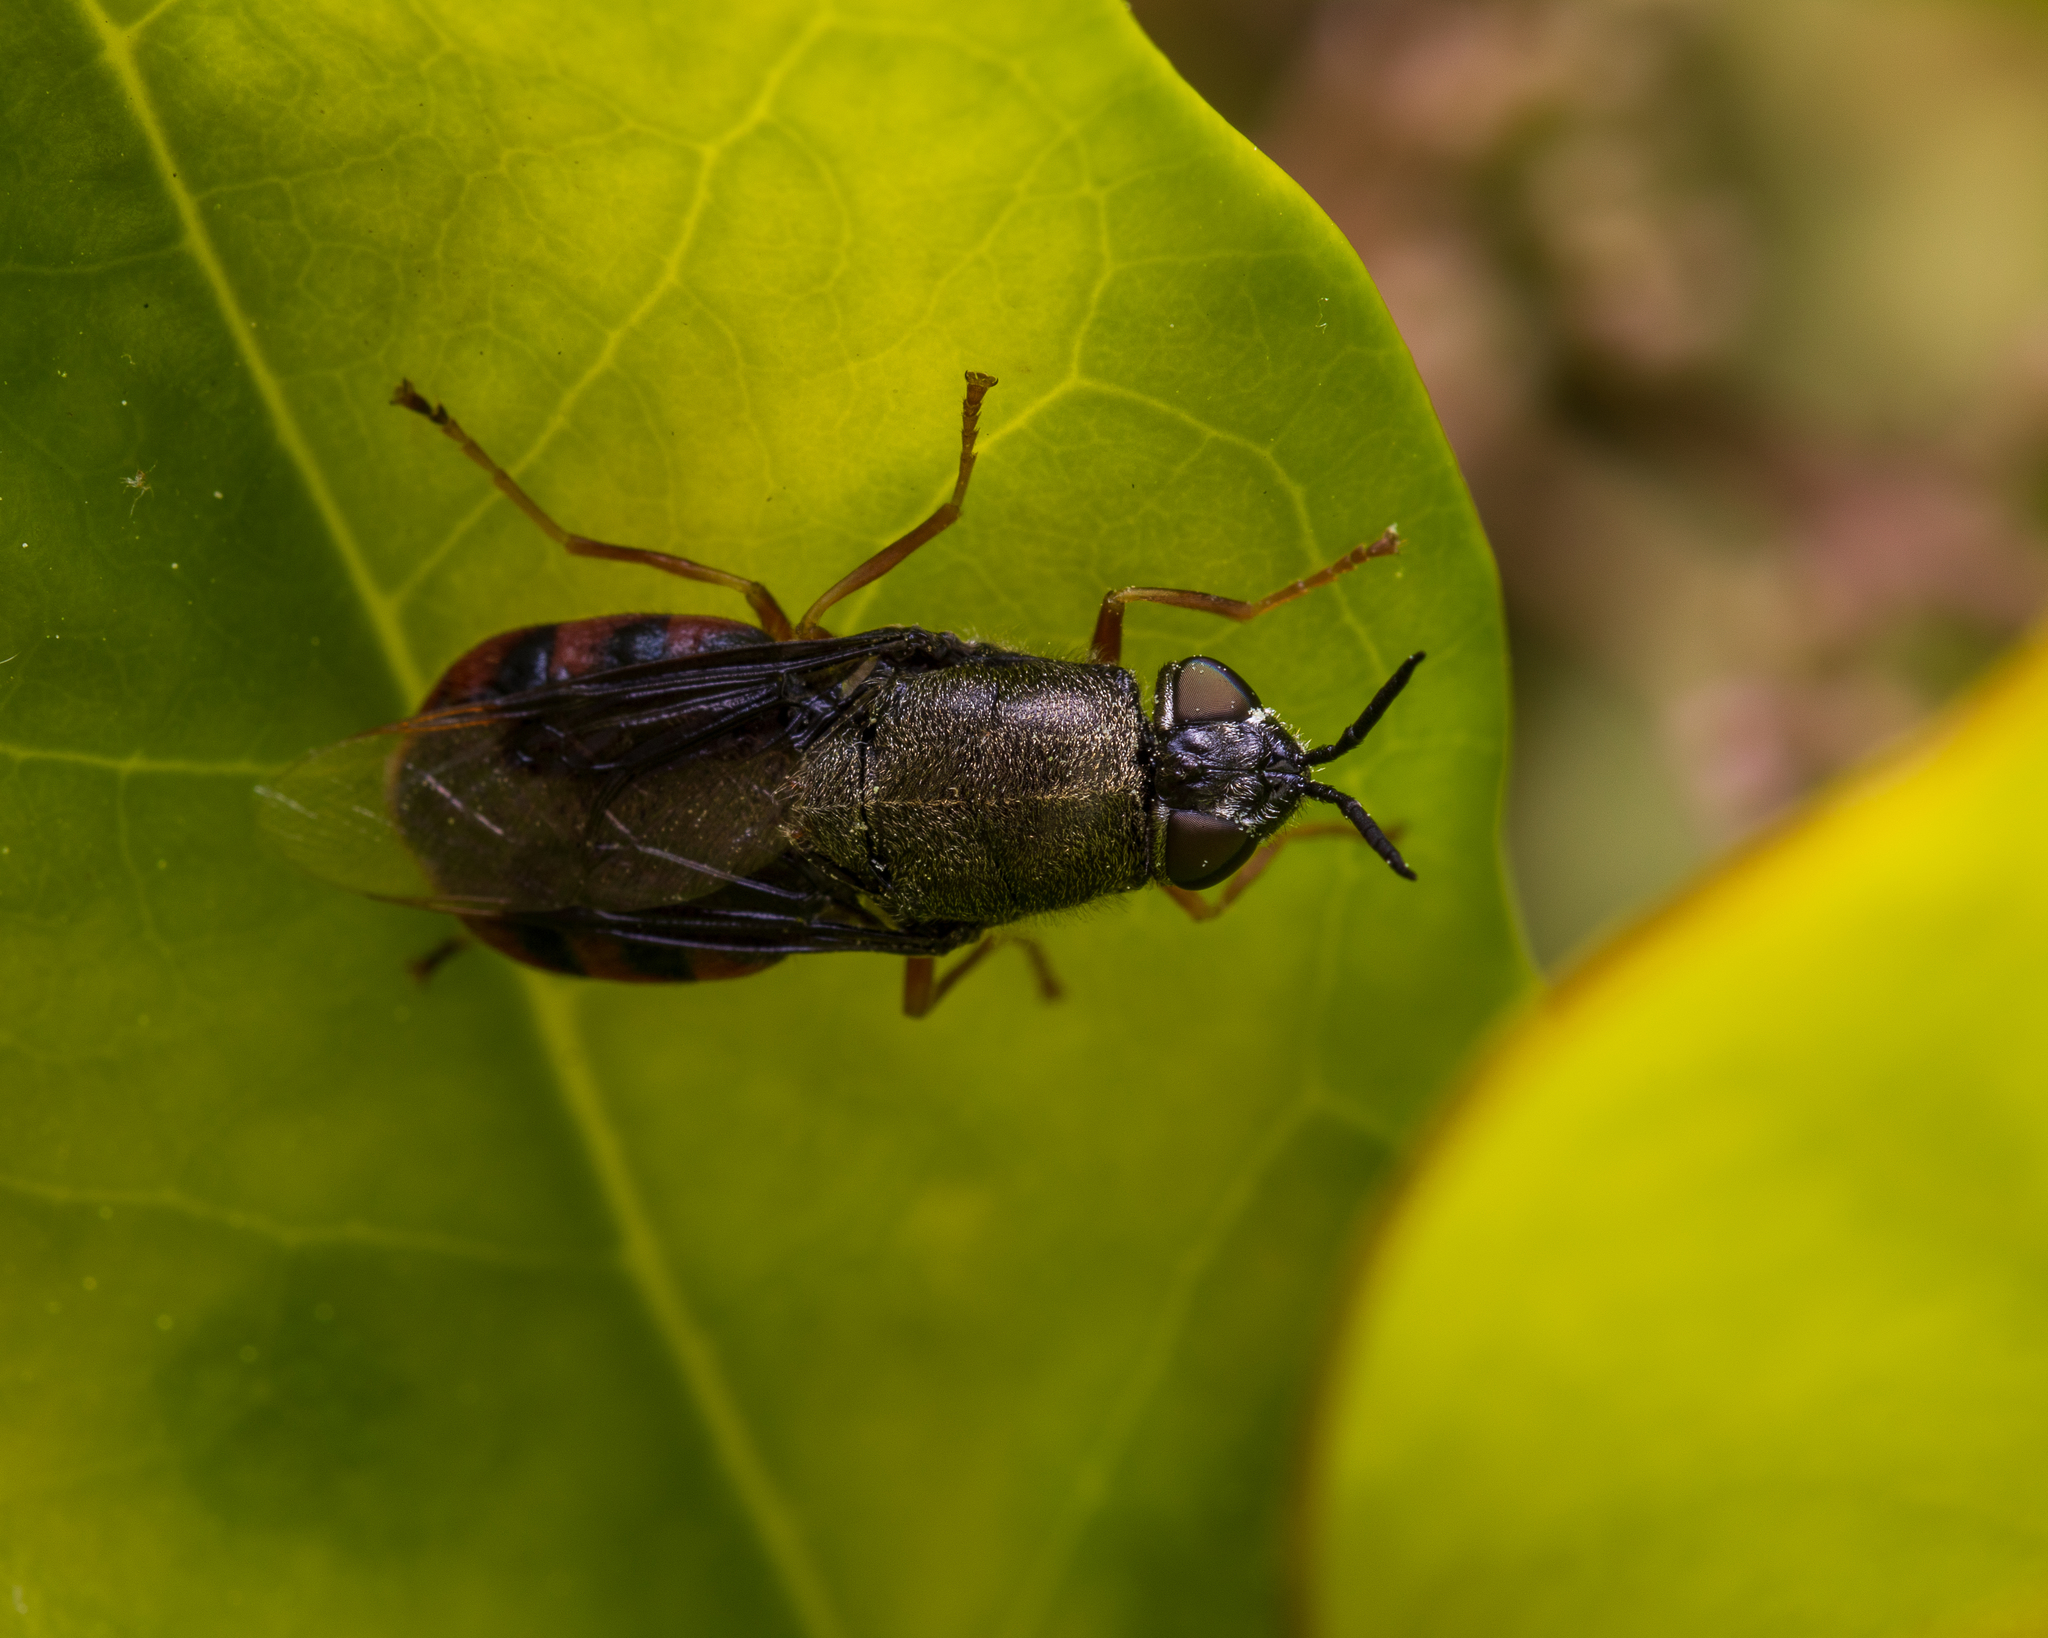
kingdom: Animalia
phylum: Arthropoda
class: Insecta
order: Diptera
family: Stratiomyidae
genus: Odontomyia
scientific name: Odontomyia profuscata
